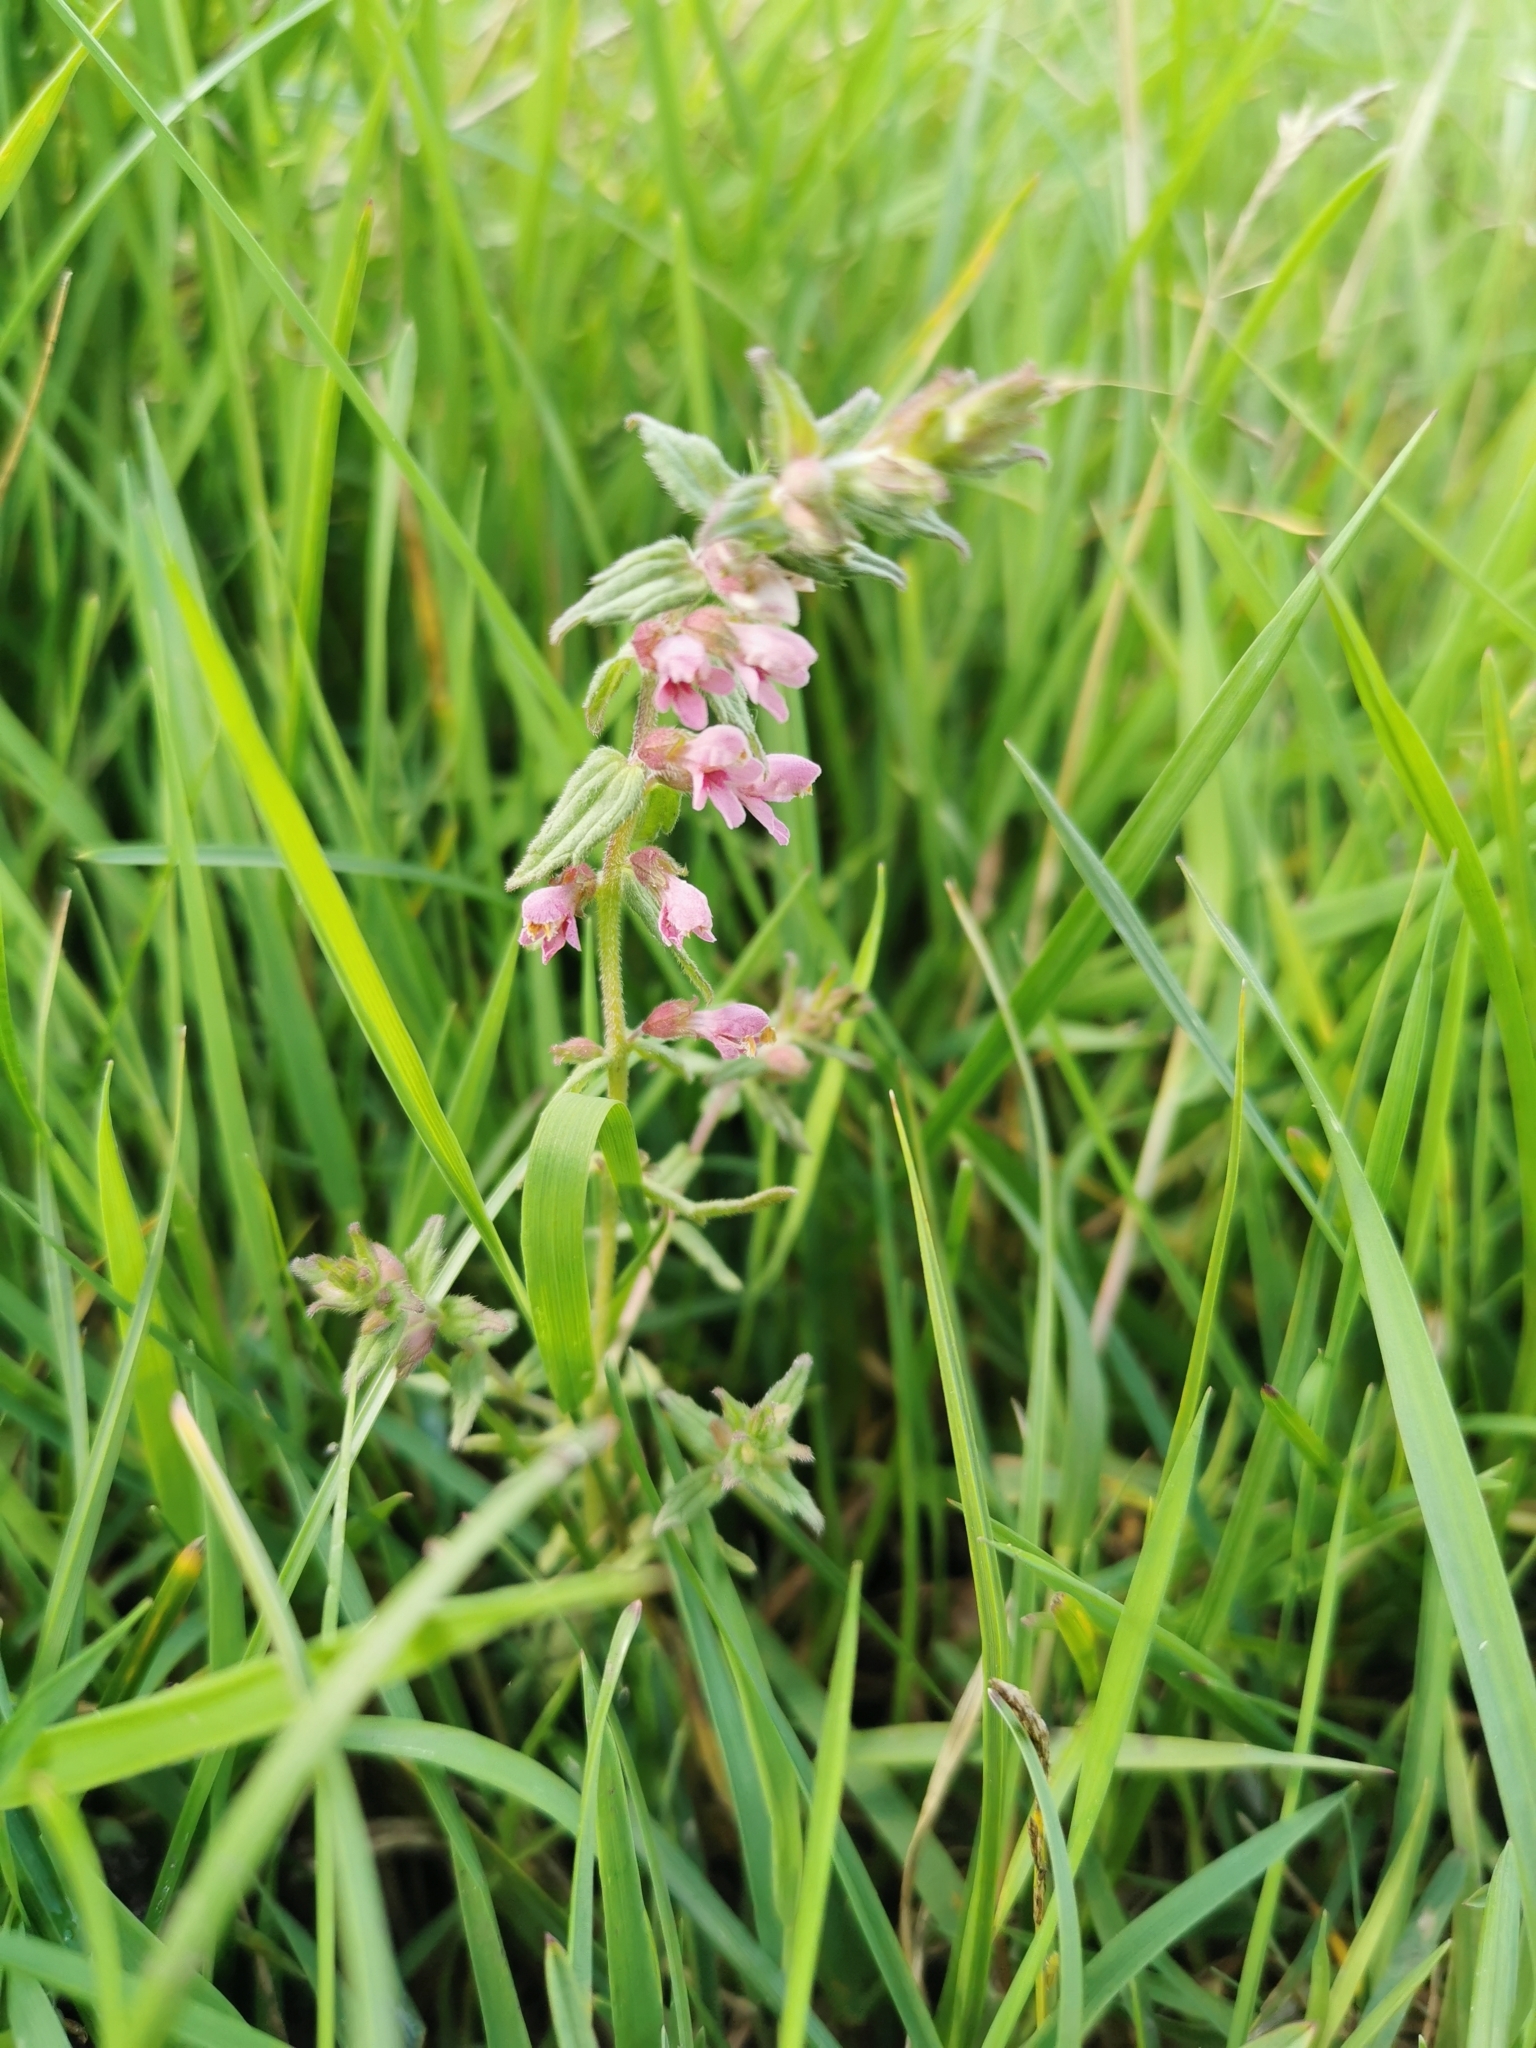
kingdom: Plantae
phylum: Tracheophyta
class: Magnoliopsida
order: Lamiales
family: Orobanchaceae
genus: Odontites
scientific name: Odontites vernus
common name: Red bartsia
